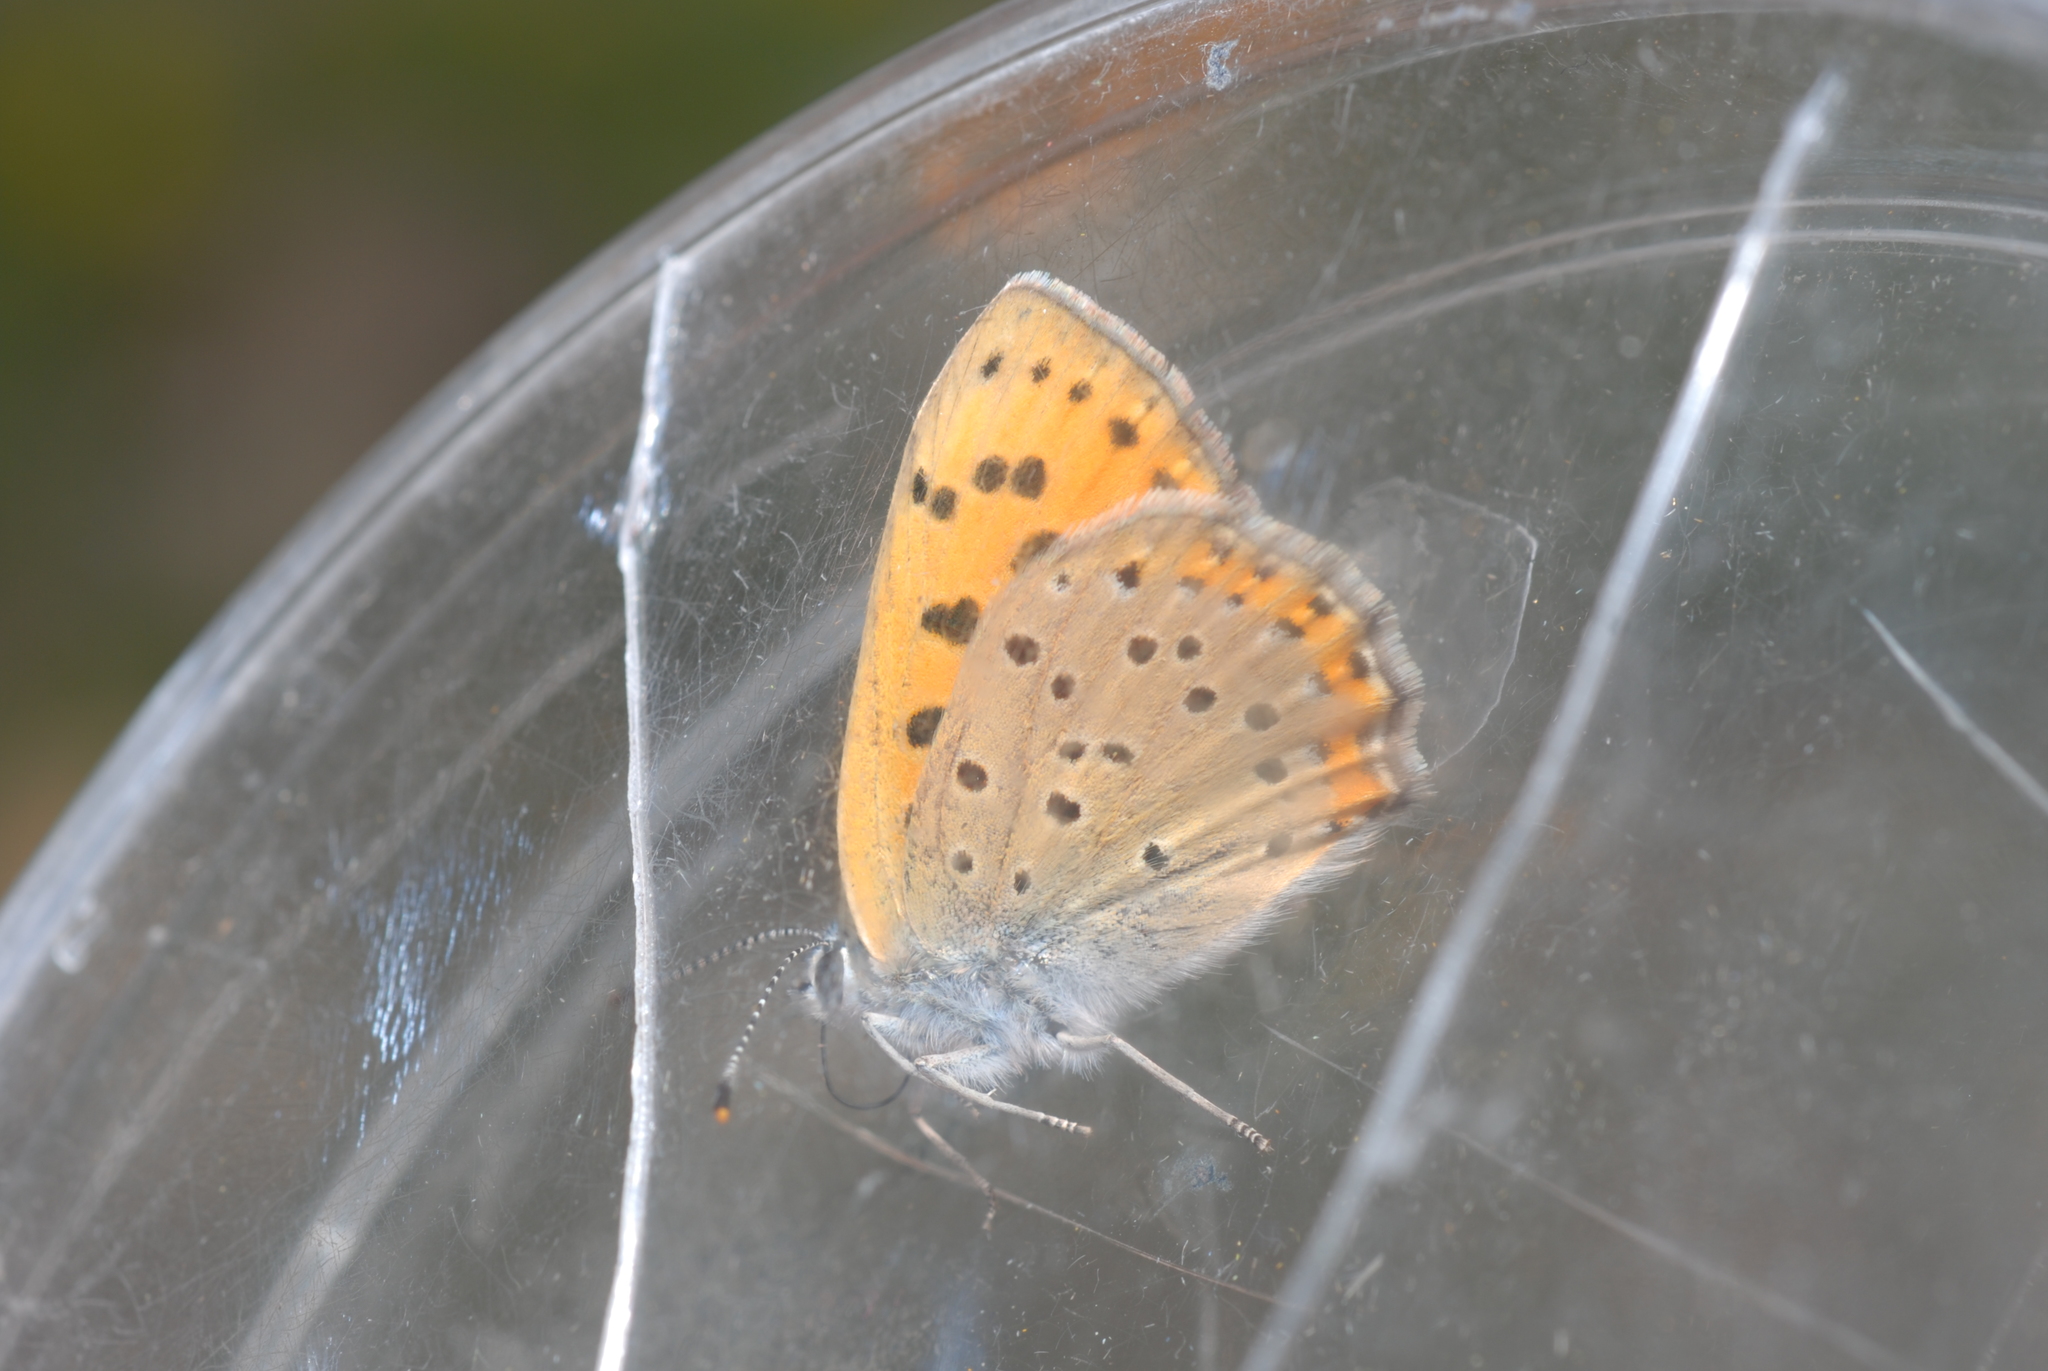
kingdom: Animalia
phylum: Arthropoda
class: Insecta
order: Lepidoptera
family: Lycaenidae
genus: Lycaena
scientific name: Lycaena alciphron
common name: Purple-shot copper
